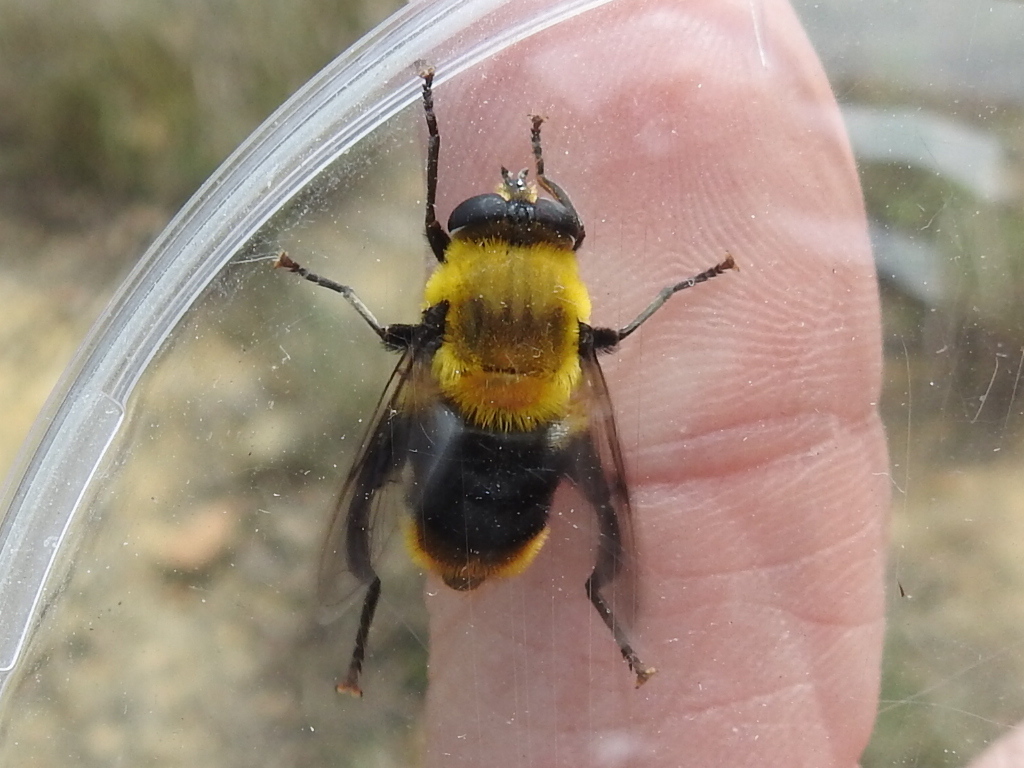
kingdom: Animalia
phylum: Arthropoda
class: Insecta
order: Diptera
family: Syrphidae
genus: Imatisma
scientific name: Imatisma bautias
